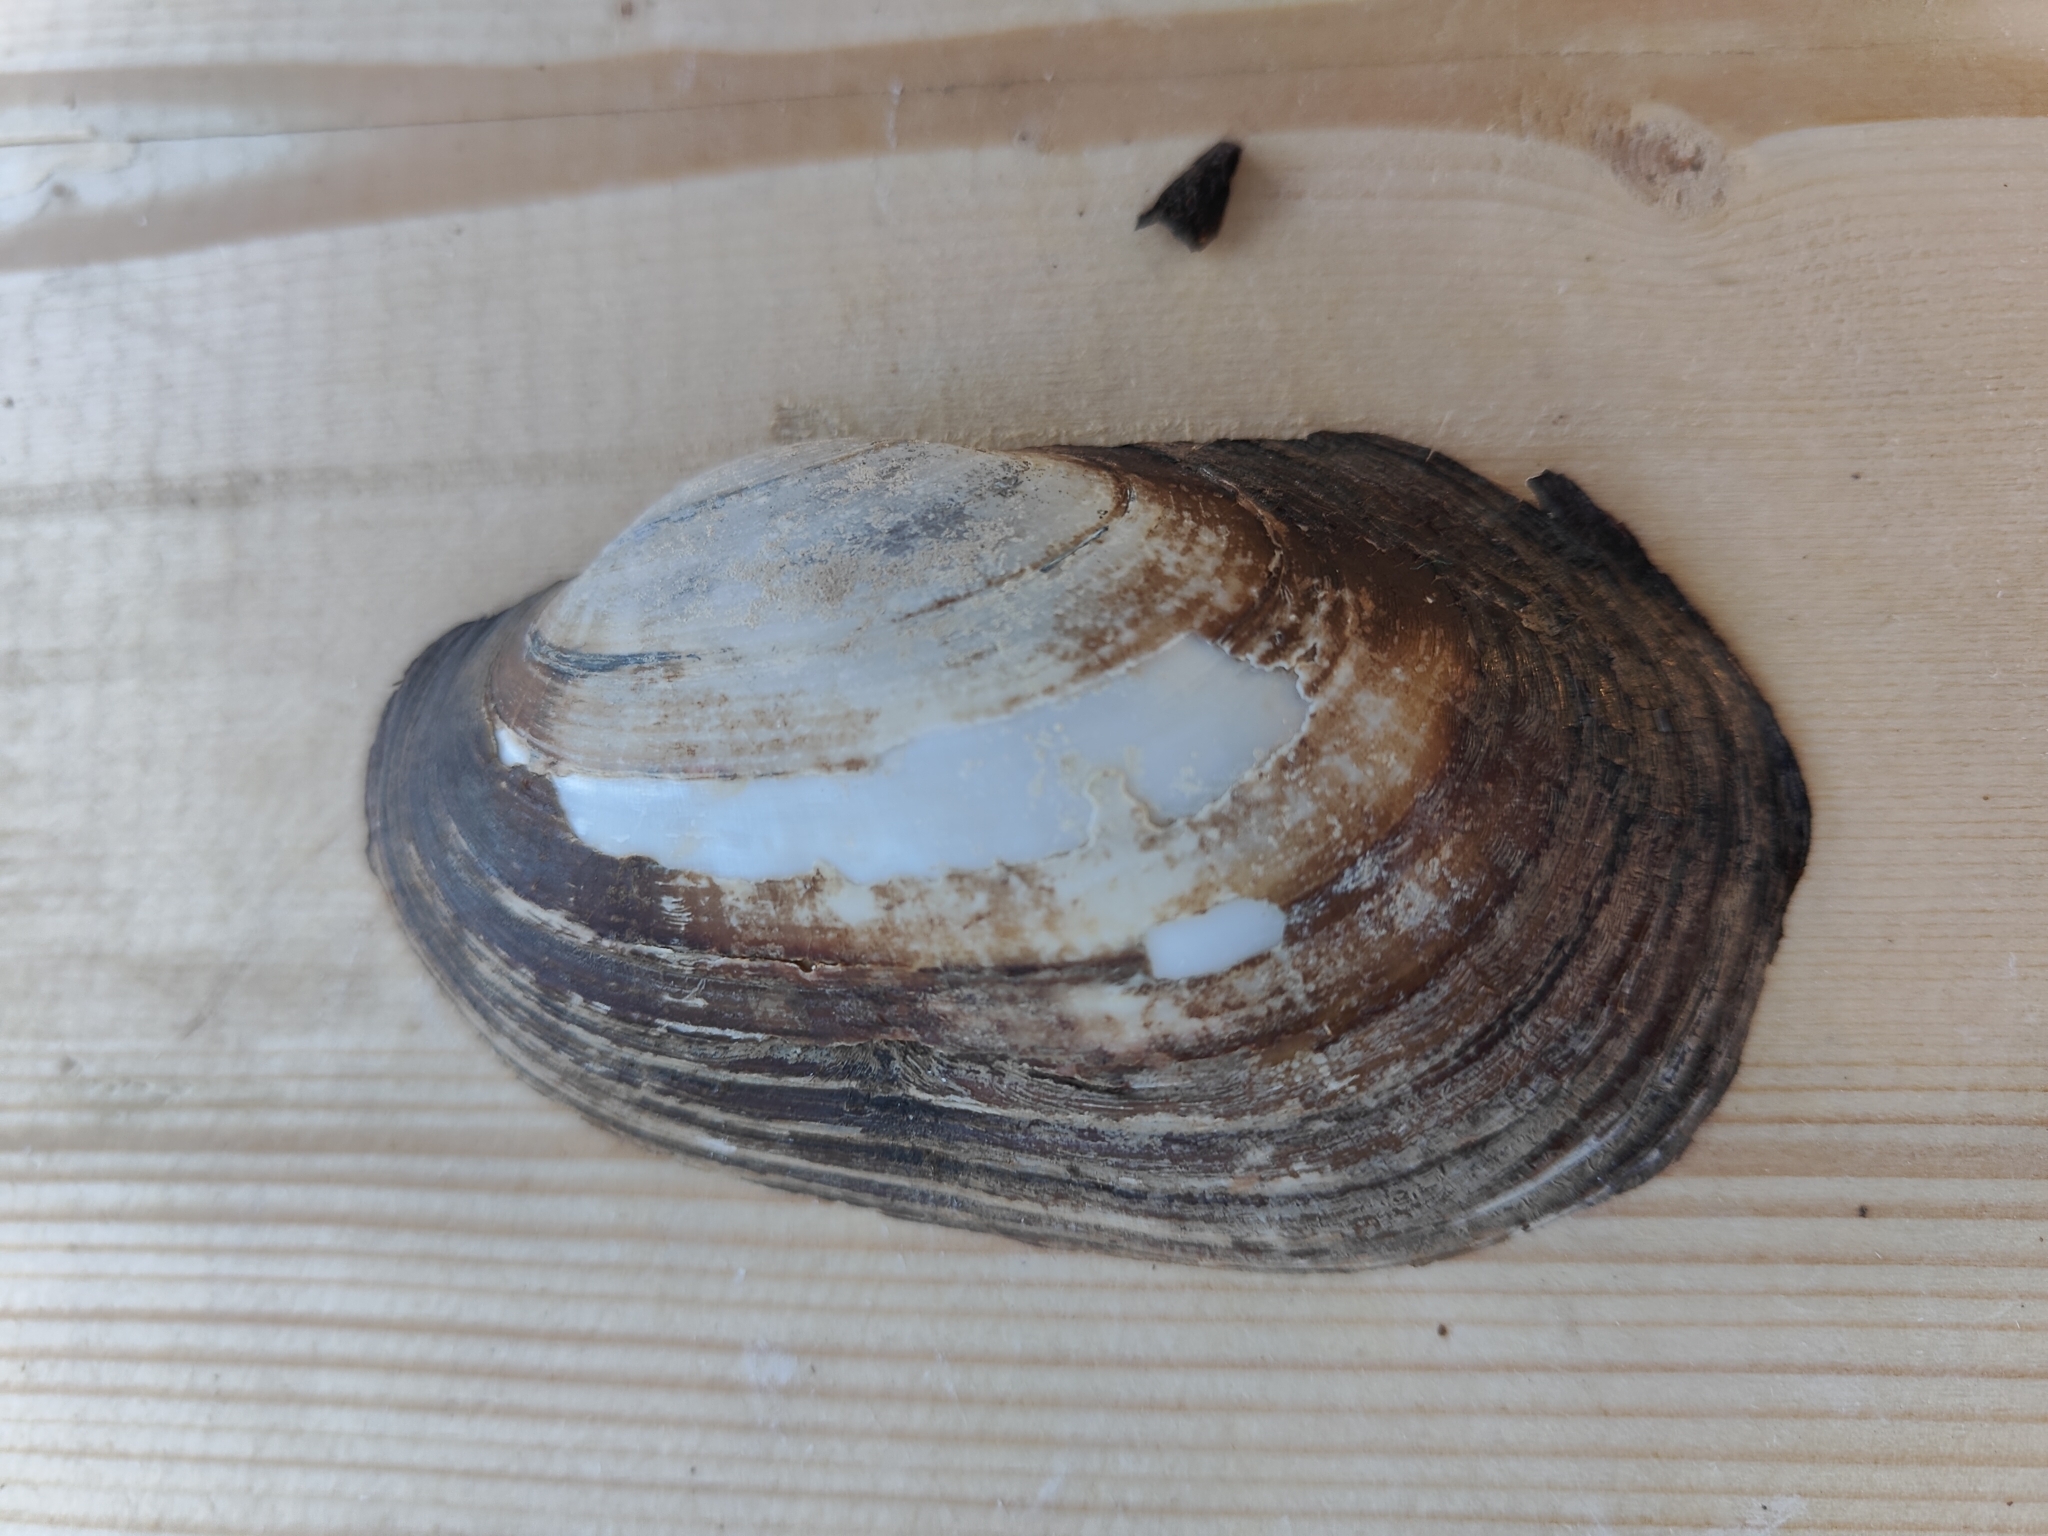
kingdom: Animalia
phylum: Mollusca
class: Bivalvia
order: Unionida
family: Unionidae
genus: Lampsilis
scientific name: Lampsilis siliquoidea
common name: Fatmucket
